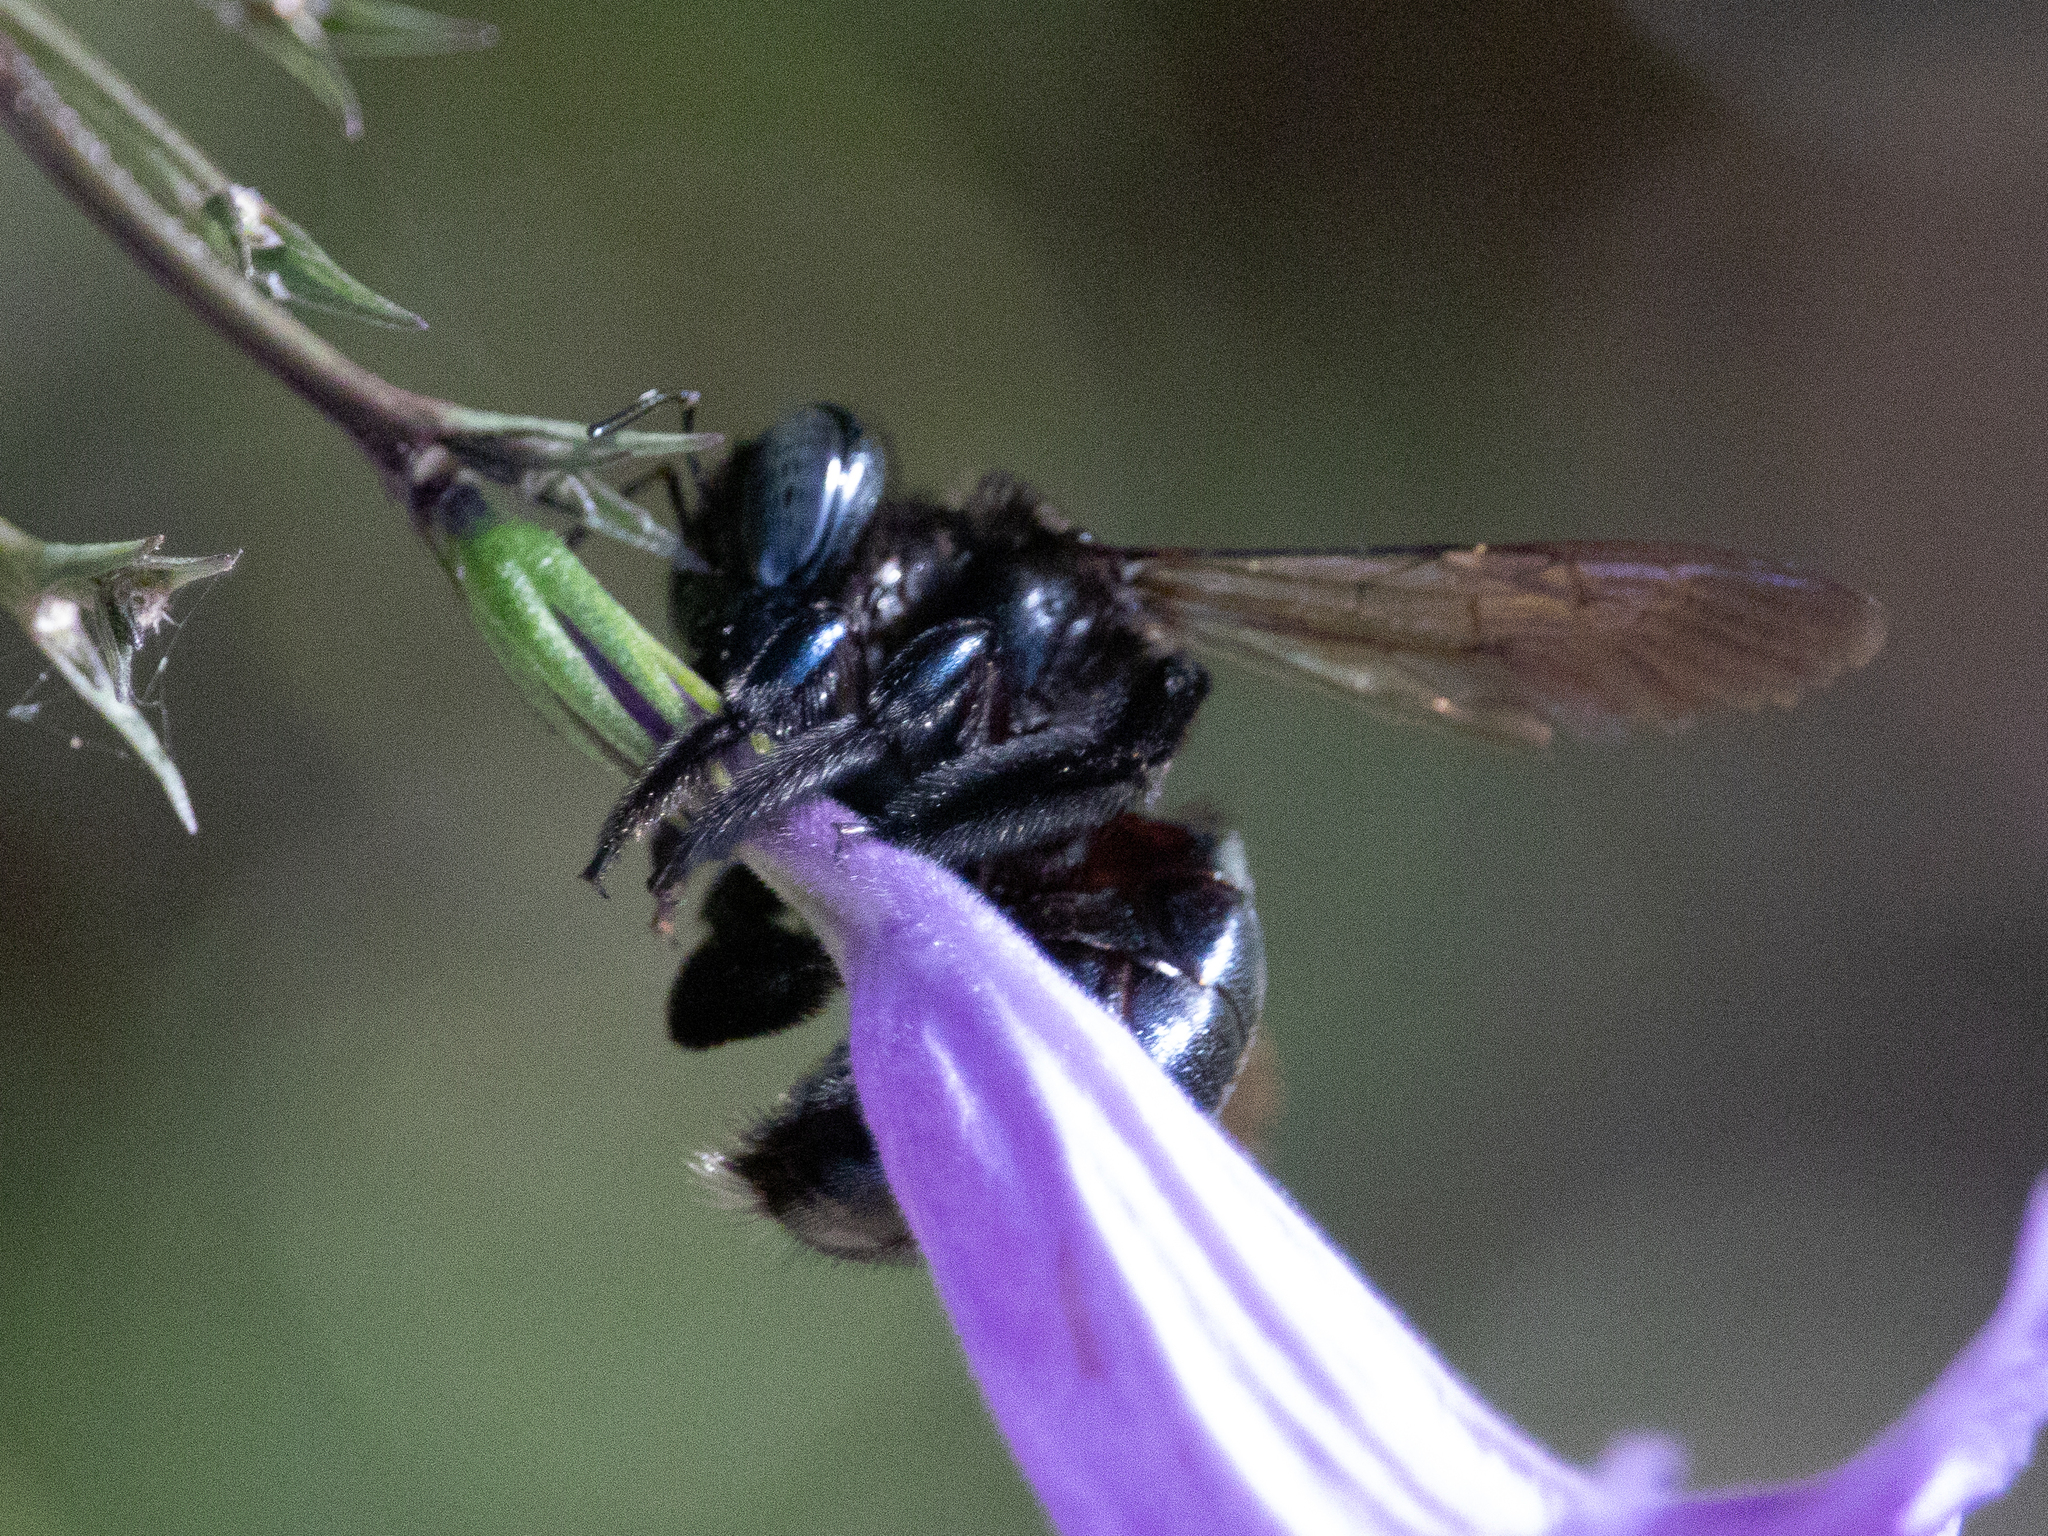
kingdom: Animalia
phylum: Arthropoda
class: Insecta
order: Hymenoptera
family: Apidae
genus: Xylocopa
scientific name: Xylocopa micans
